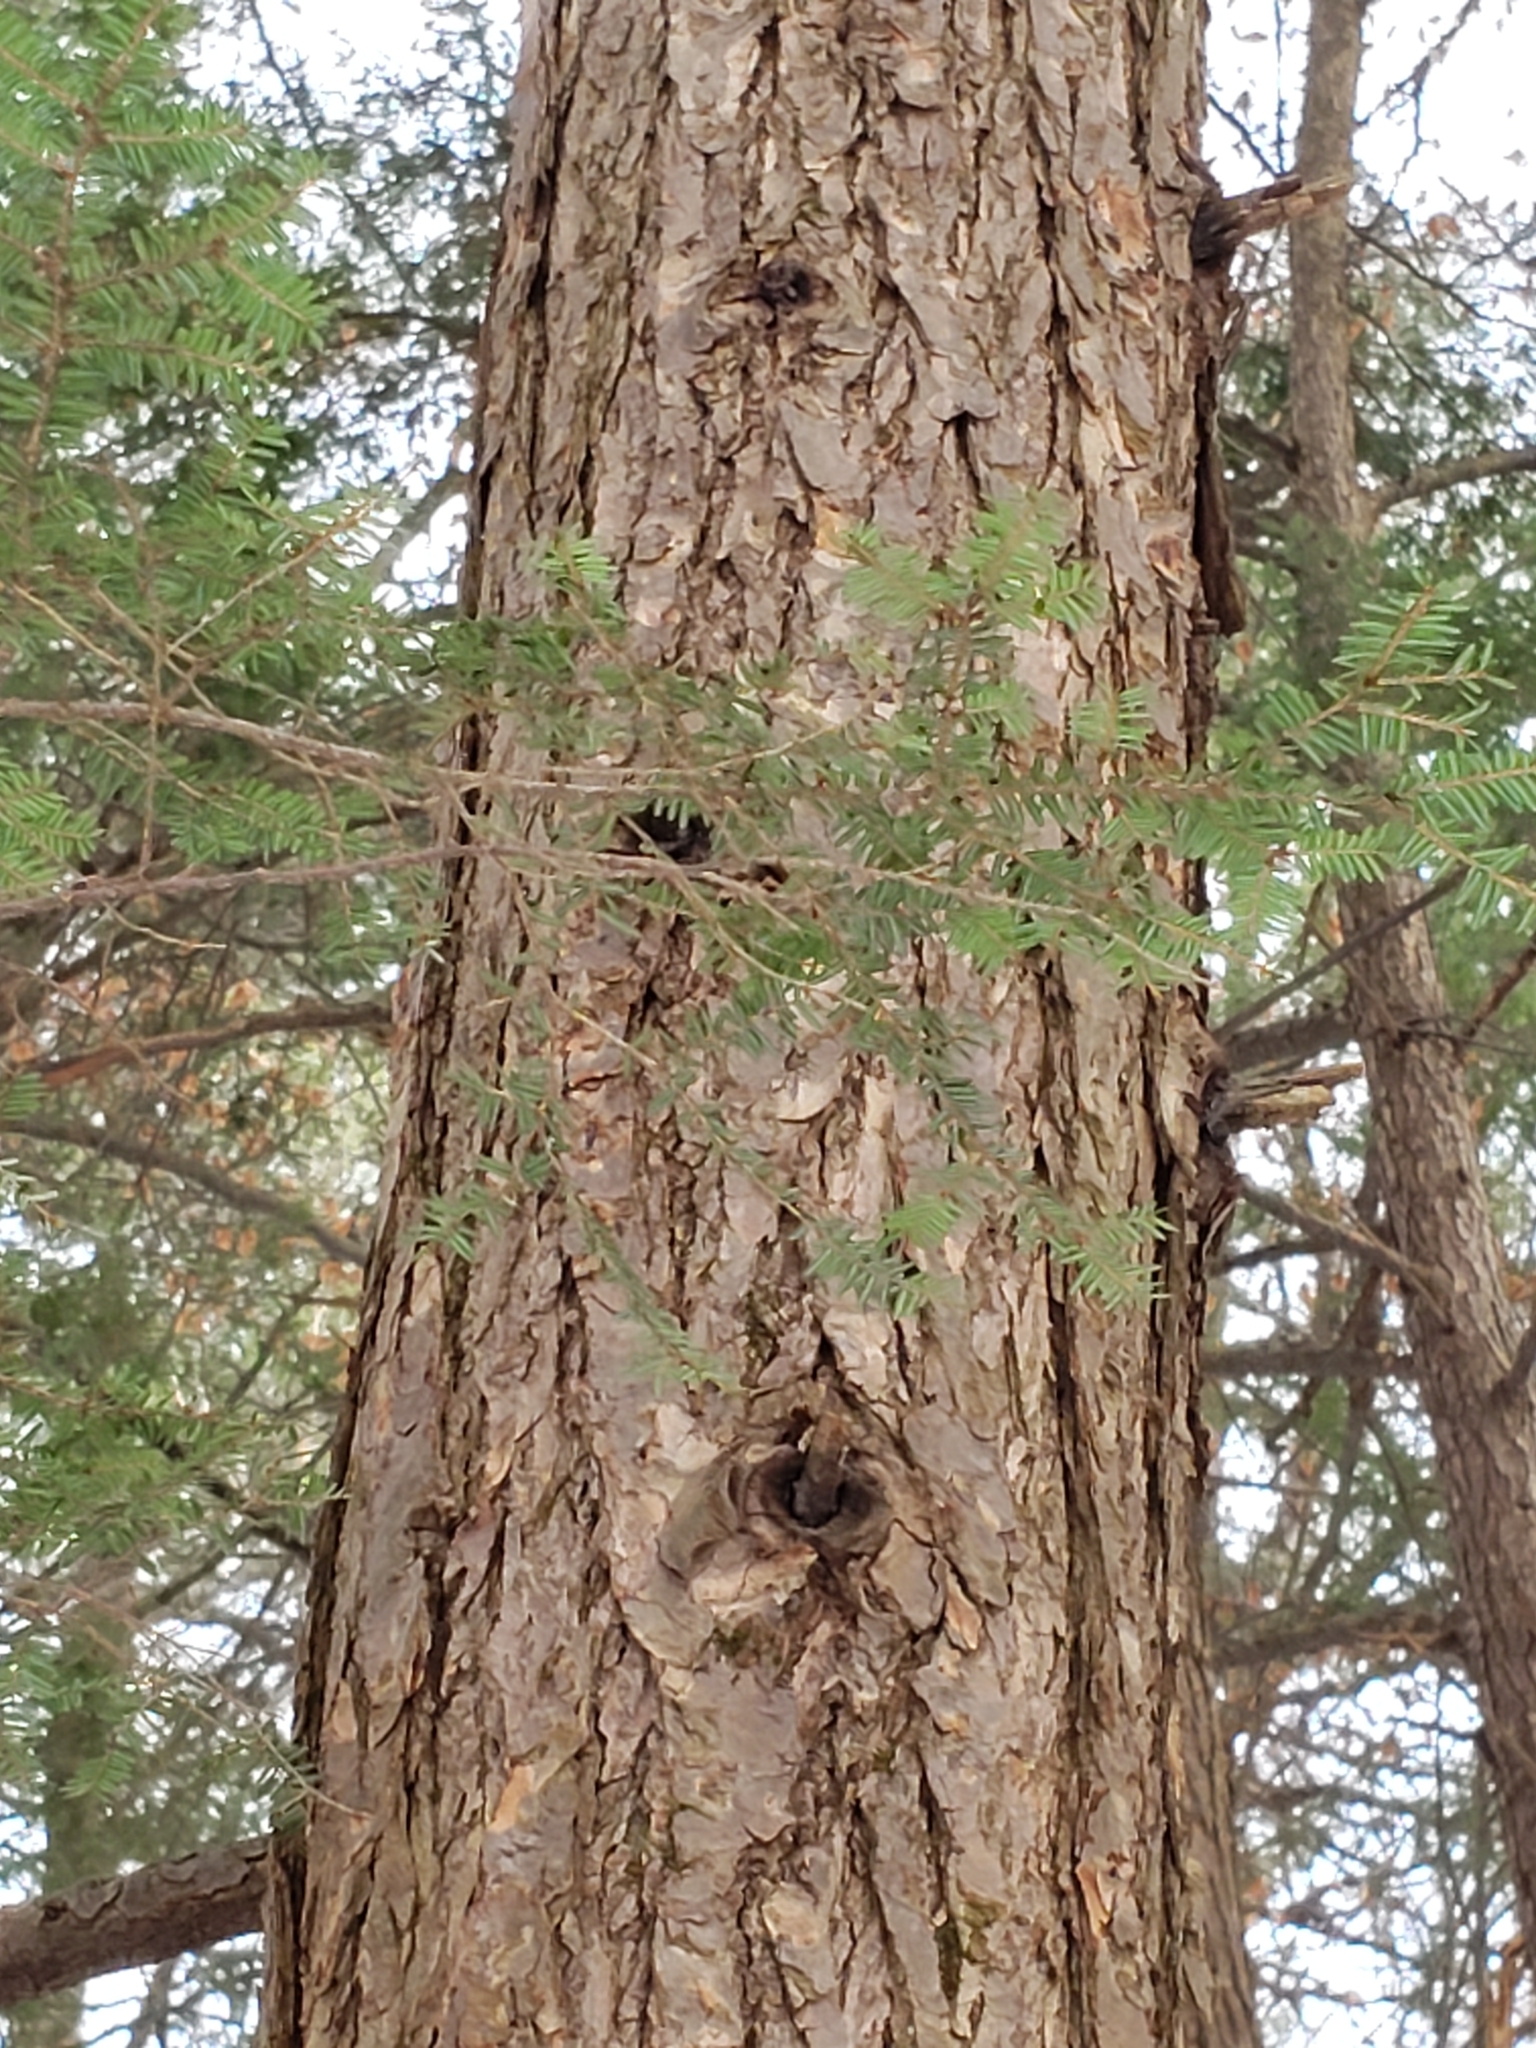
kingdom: Plantae
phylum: Tracheophyta
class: Pinopsida
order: Pinales
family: Pinaceae
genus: Tsuga
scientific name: Tsuga canadensis
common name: Eastern hemlock
